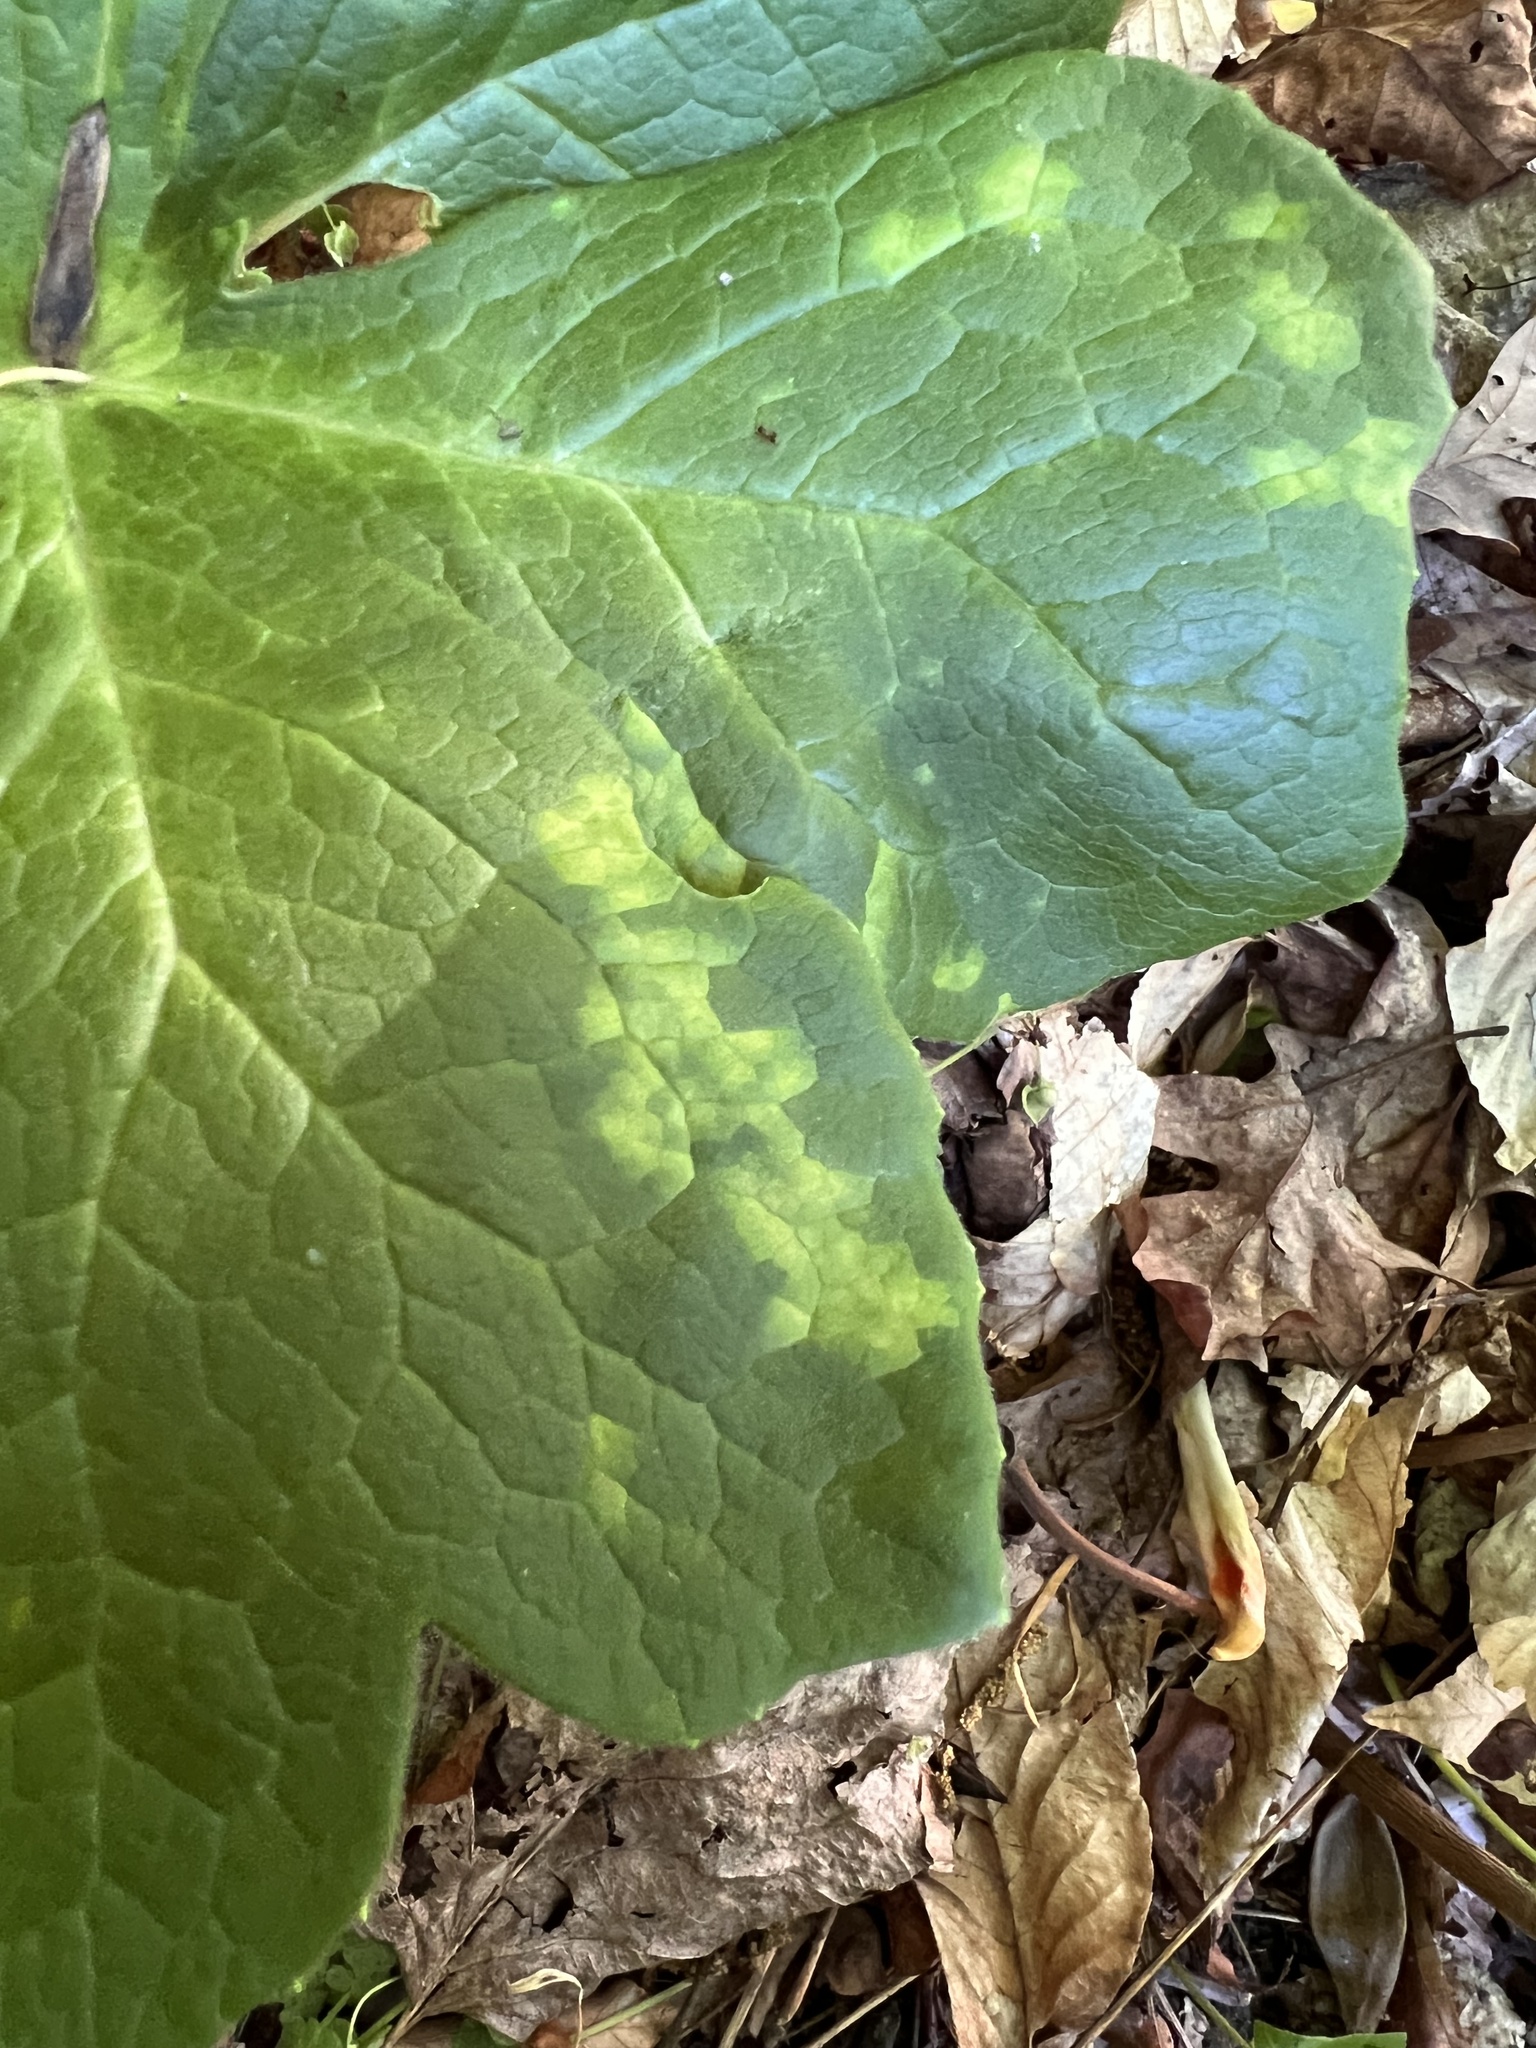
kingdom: Fungi
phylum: Basidiomycota
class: Pucciniomycetes
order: Pucciniales
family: Pucciniaceae
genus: Puccinia
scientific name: Puccinia podophylli
